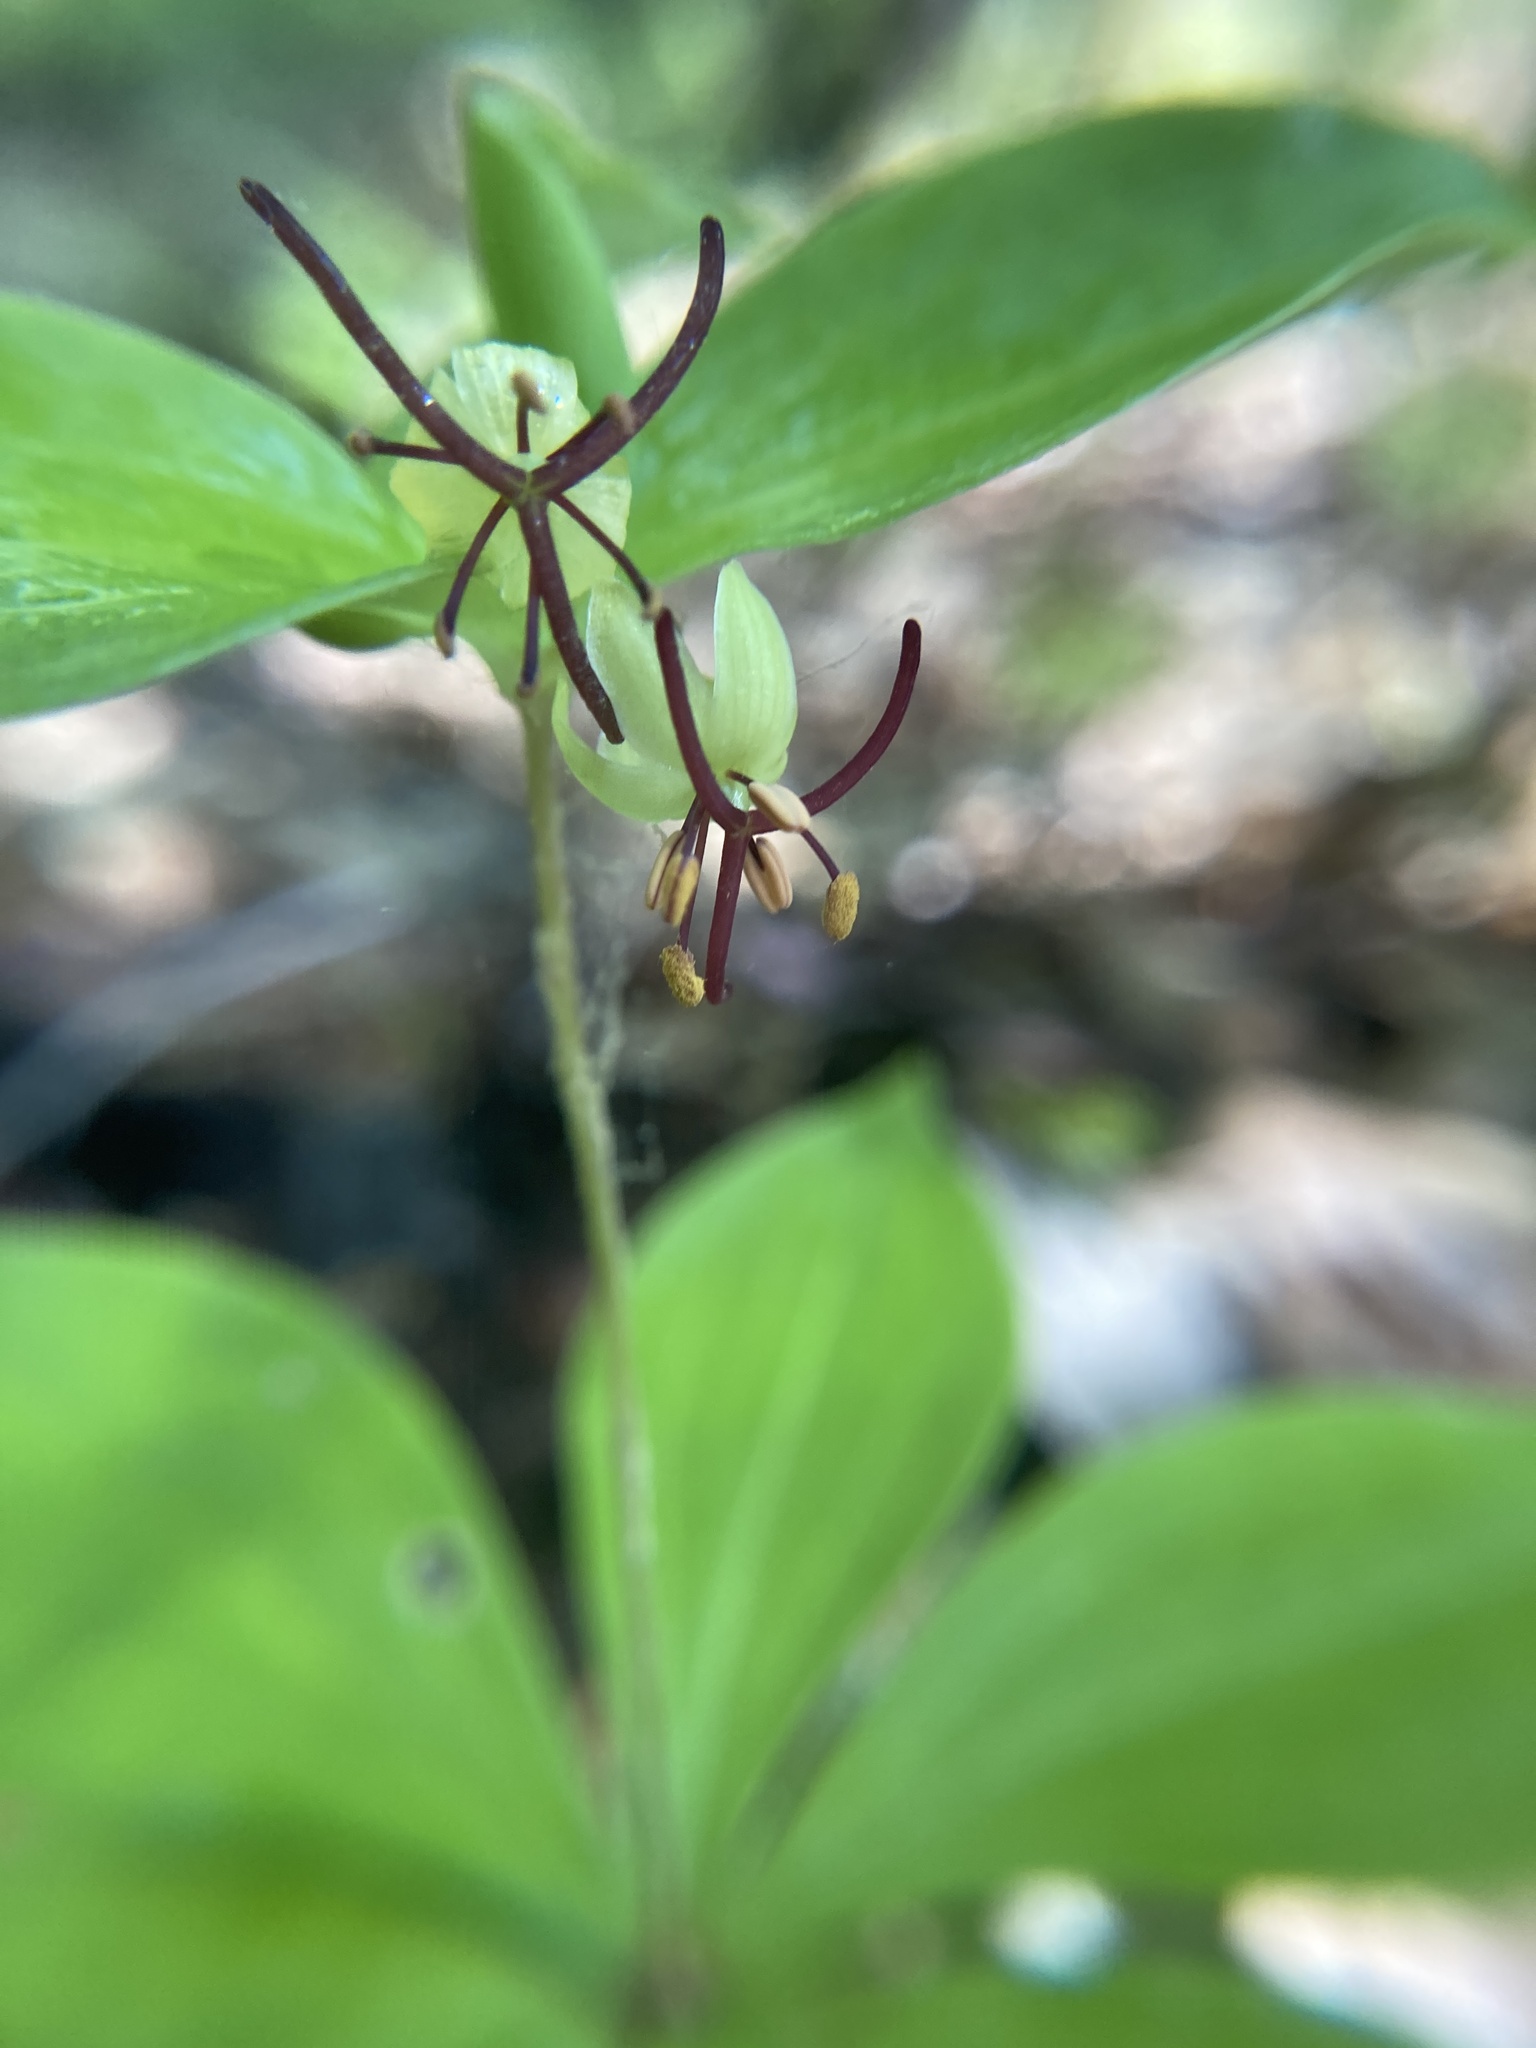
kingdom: Plantae
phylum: Tracheophyta
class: Liliopsida
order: Liliales
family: Liliaceae
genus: Medeola
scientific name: Medeola virginiana
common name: Indian cucumber-root
